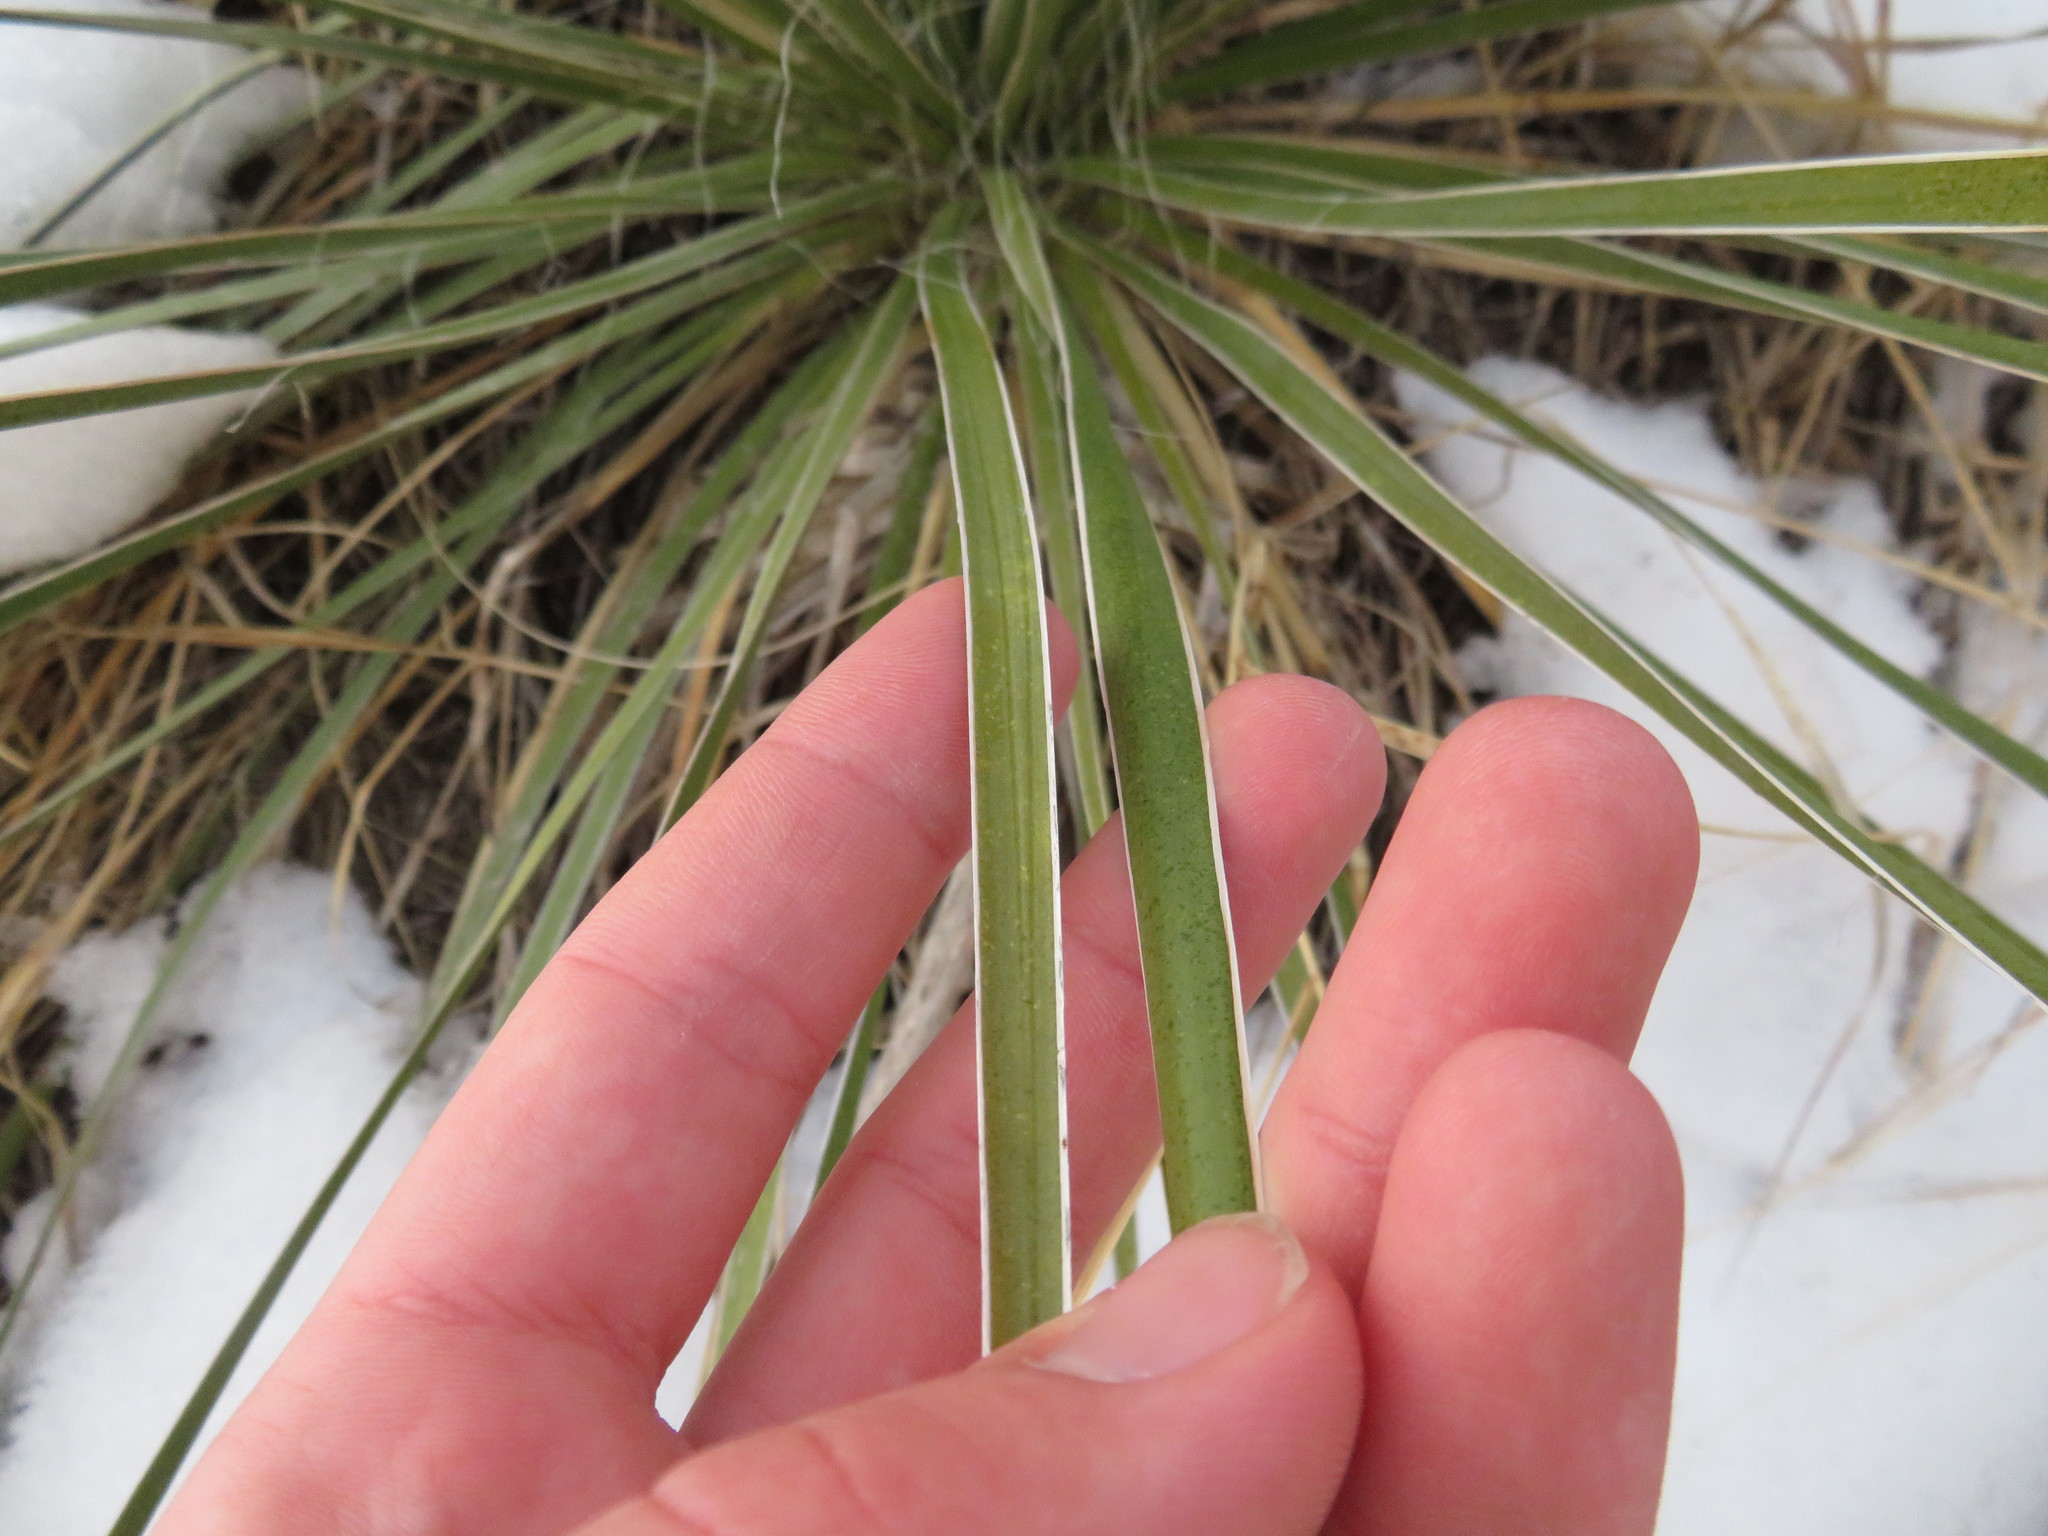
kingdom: Plantae
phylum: Tracheophyta
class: Liliopsida
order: Asparagales
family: Asparagaceae
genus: Yucca
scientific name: Yucca glauca
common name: Great plains yucca
